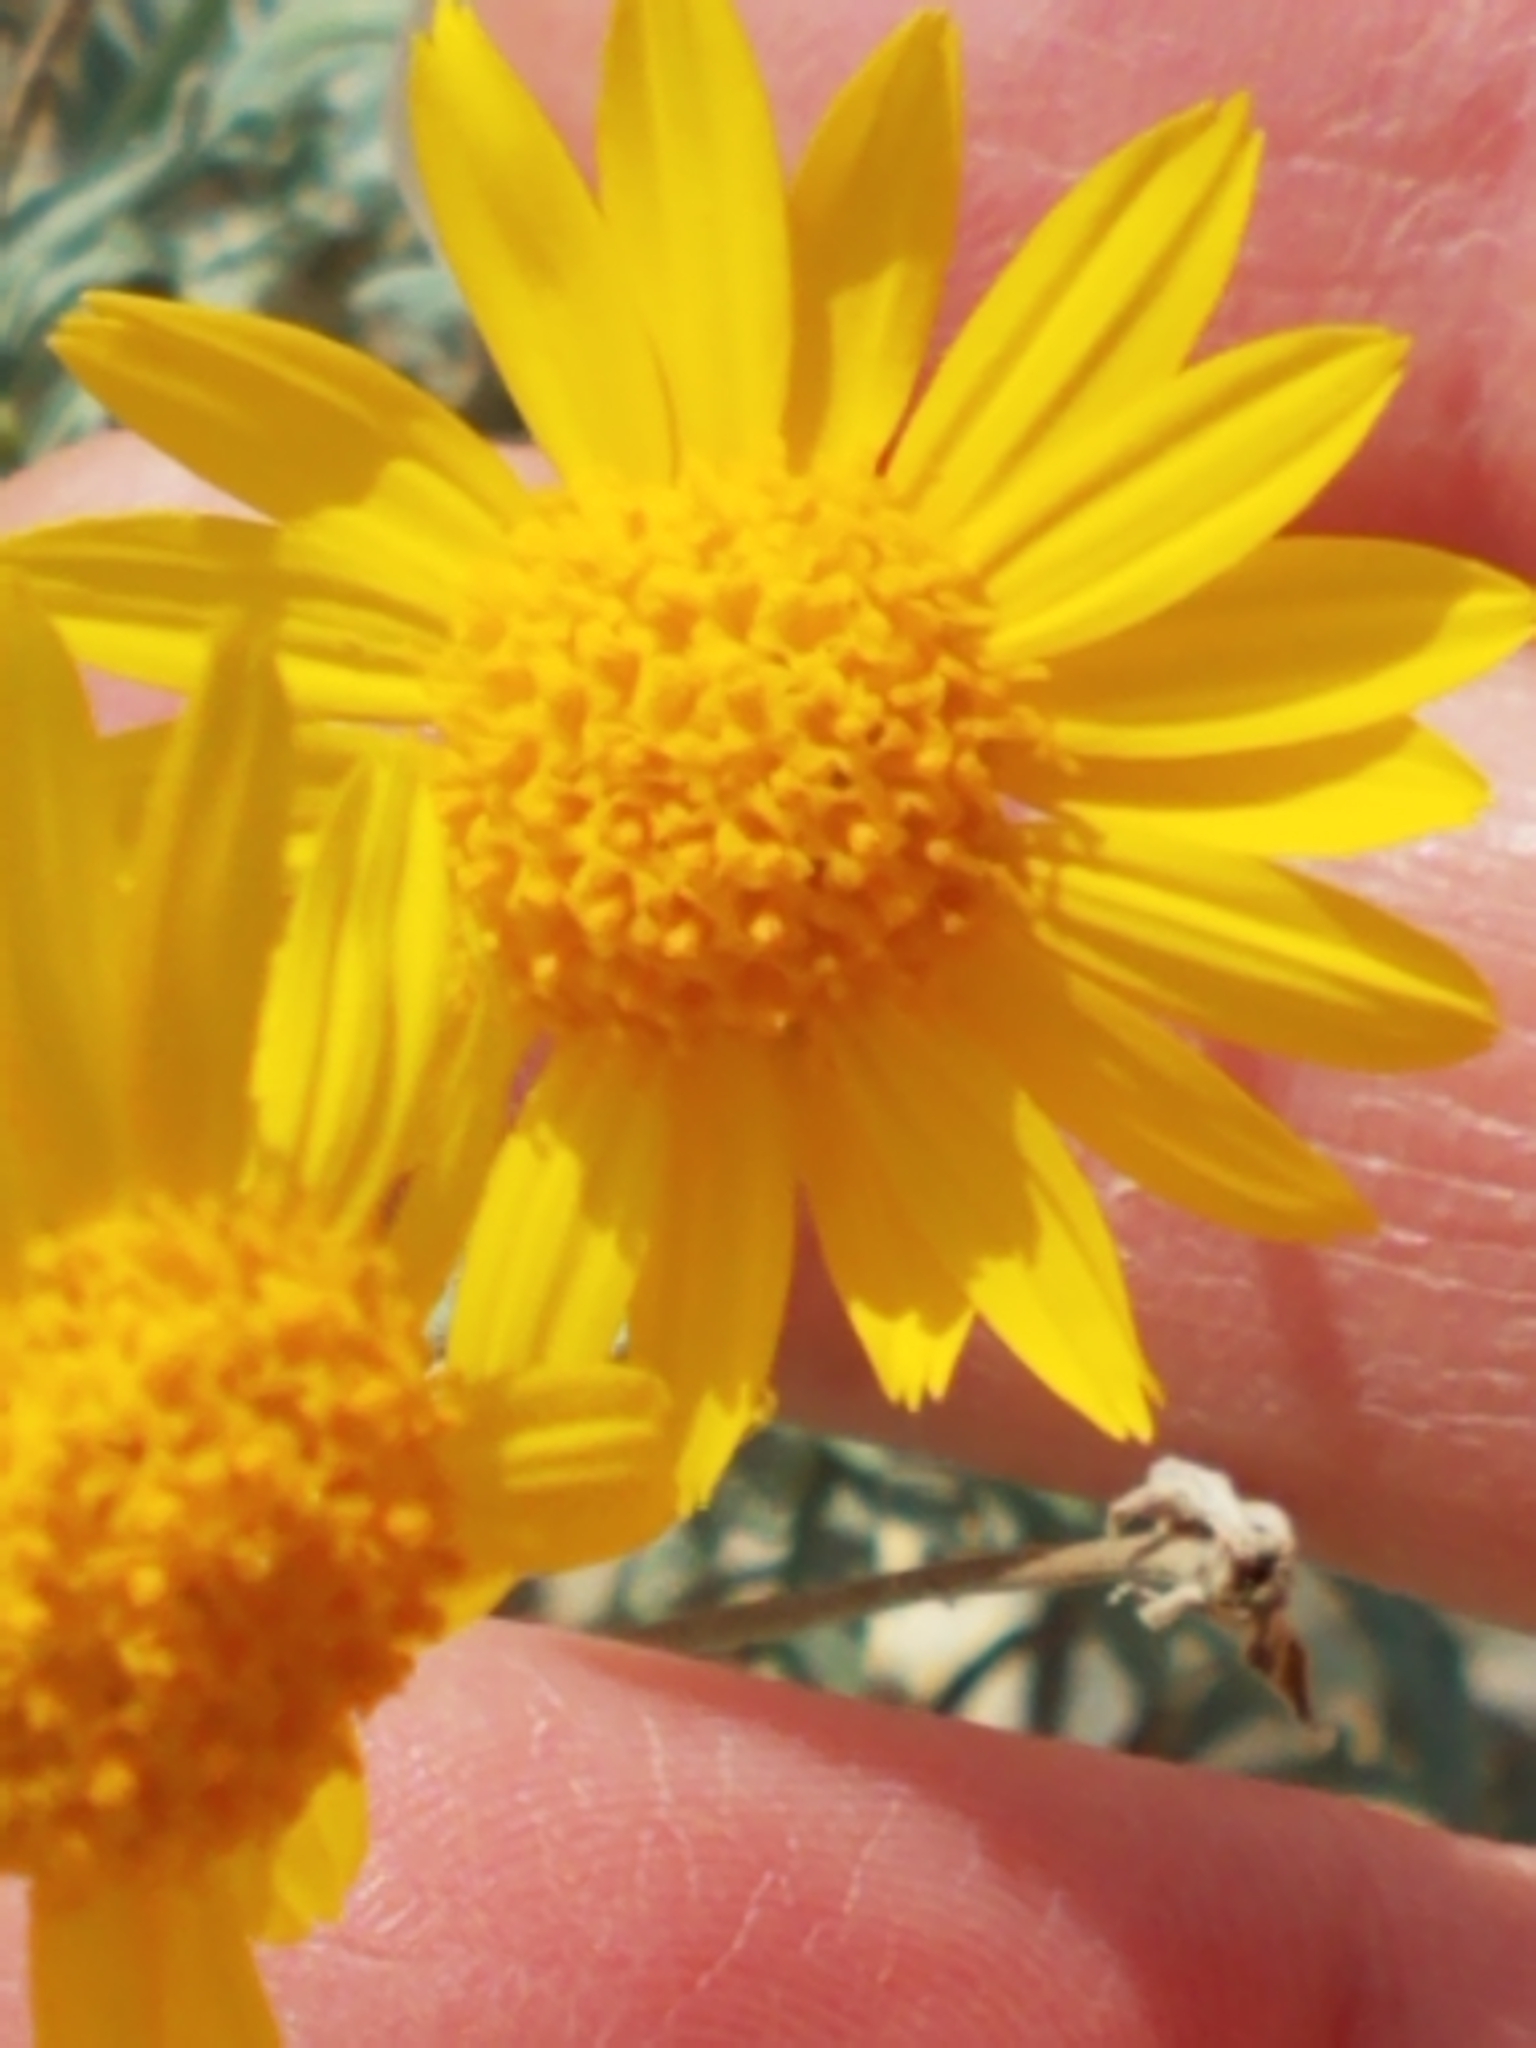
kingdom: Plantae
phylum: Tracheophyta
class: Magnoliopsida
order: Asterales
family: Asteraceae
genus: Picradeniopsis
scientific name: Picradeniopsis absinthifolia
